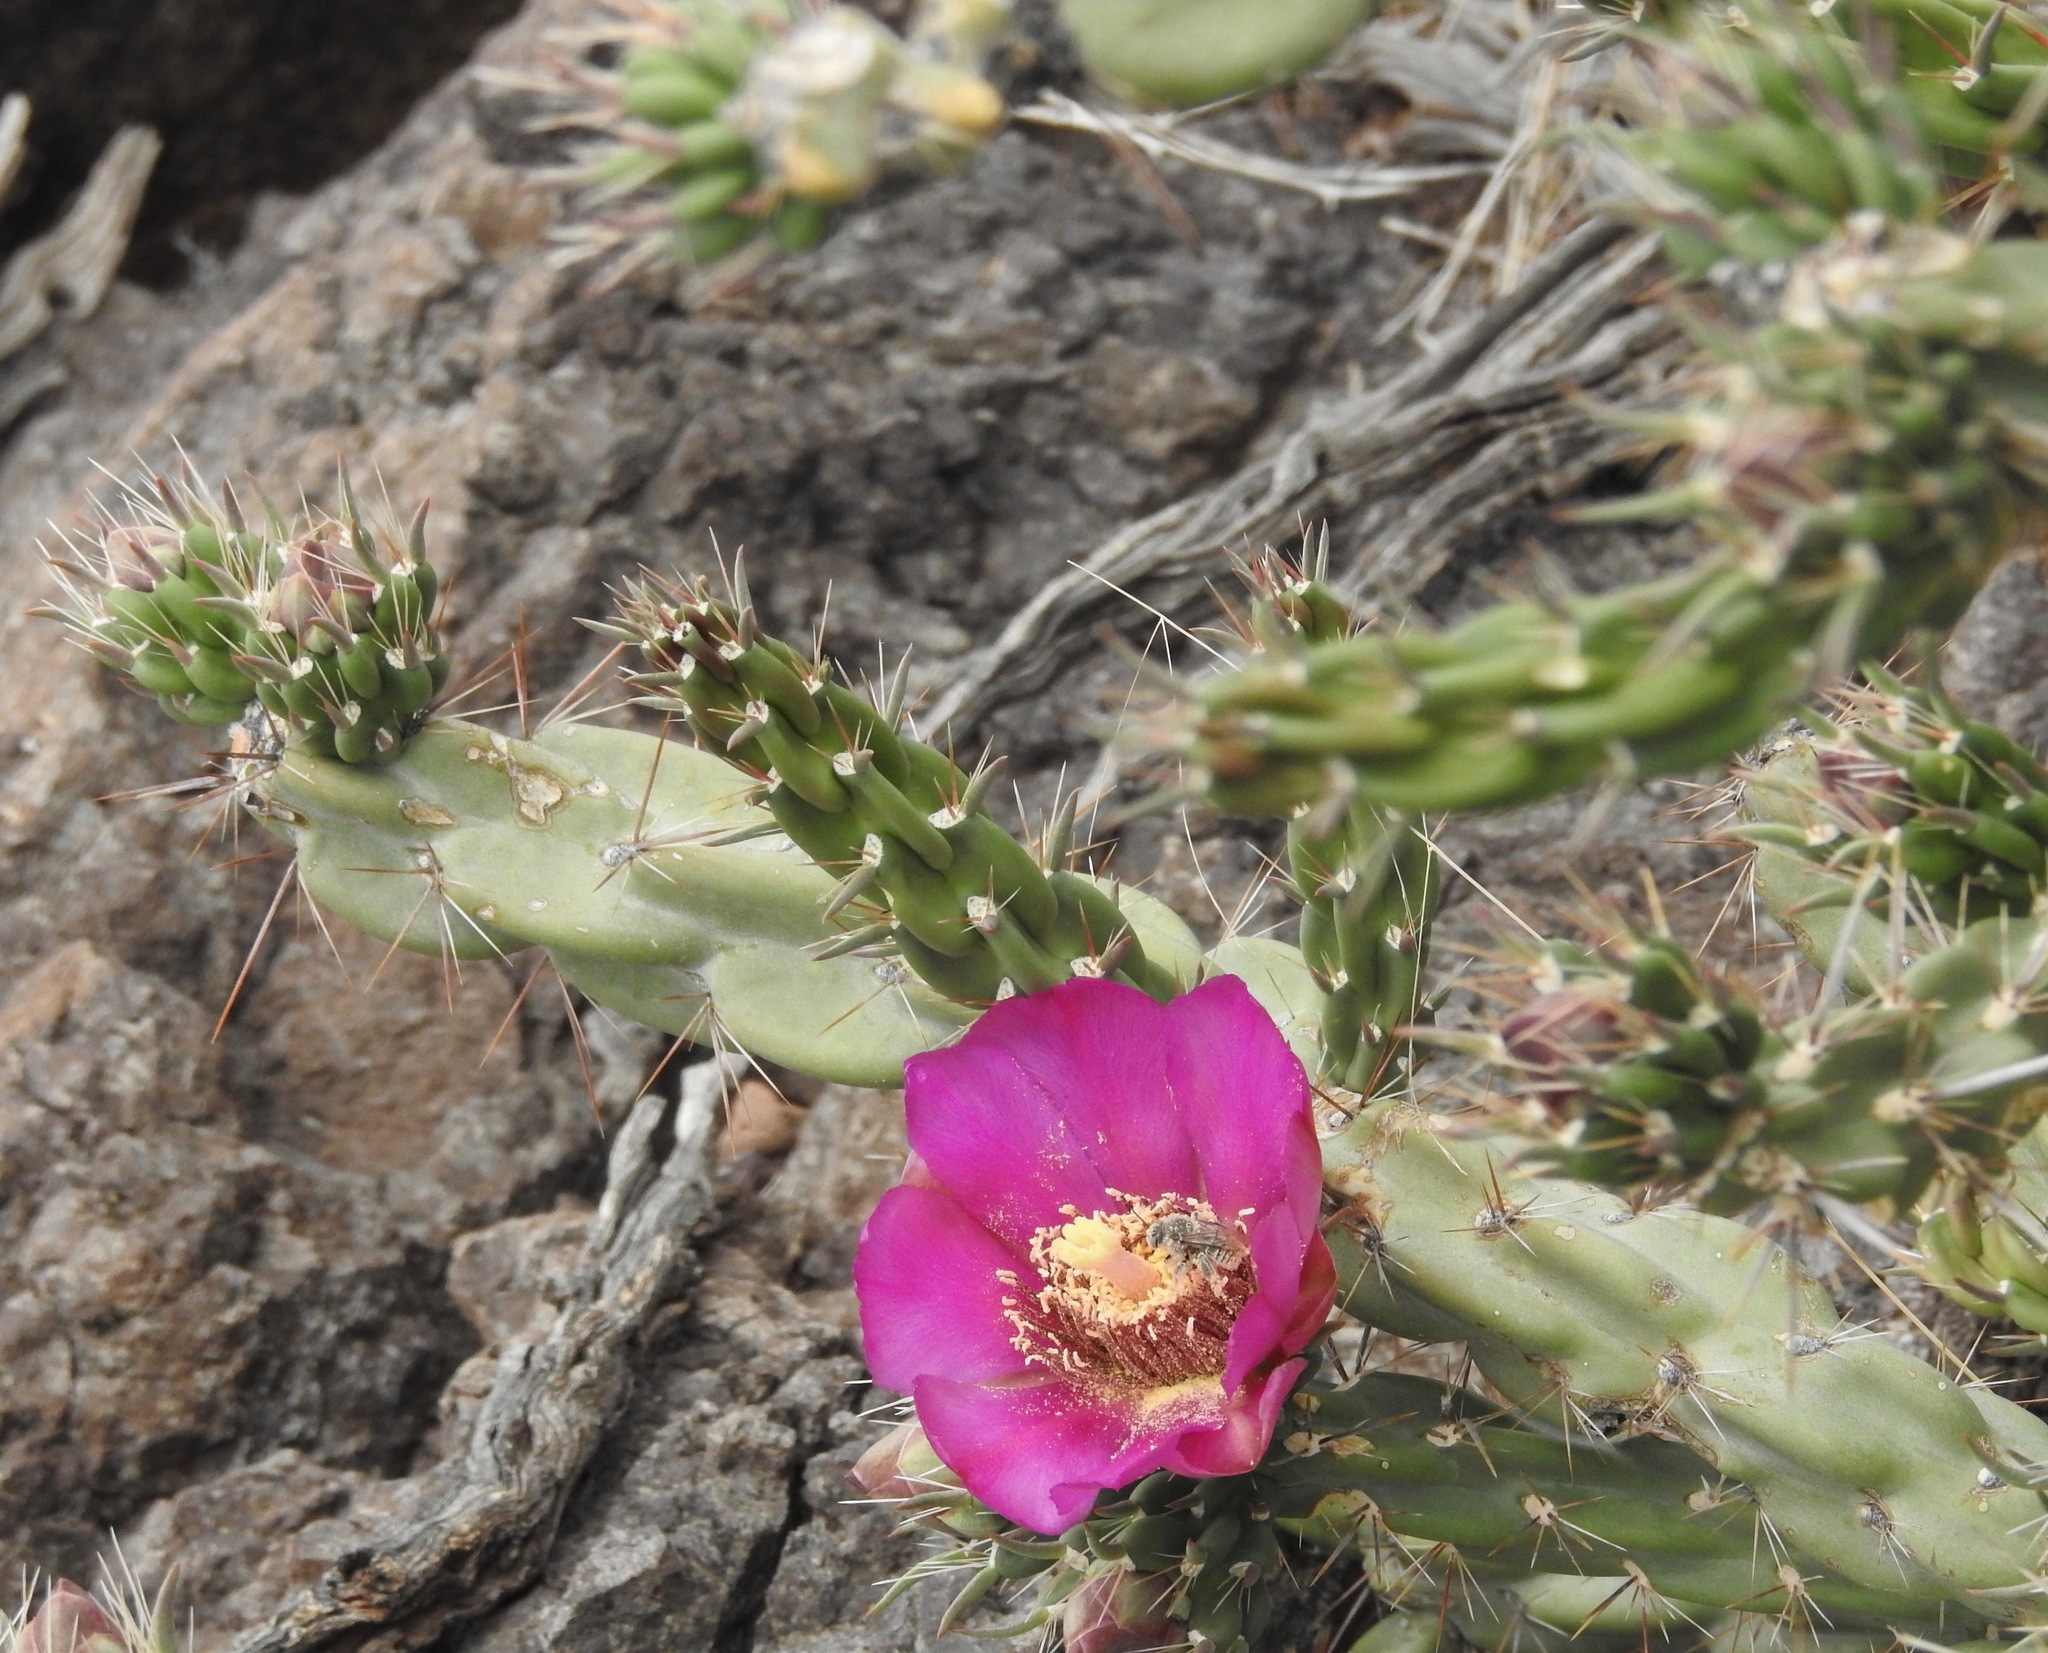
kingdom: Plantae
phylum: Tracheophyta
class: Magnoliopsida
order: Caryophyllales
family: Cactaceae
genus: Cylindropuntia
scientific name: Cylindropuntia imbricata
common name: Candelabrum cactus
